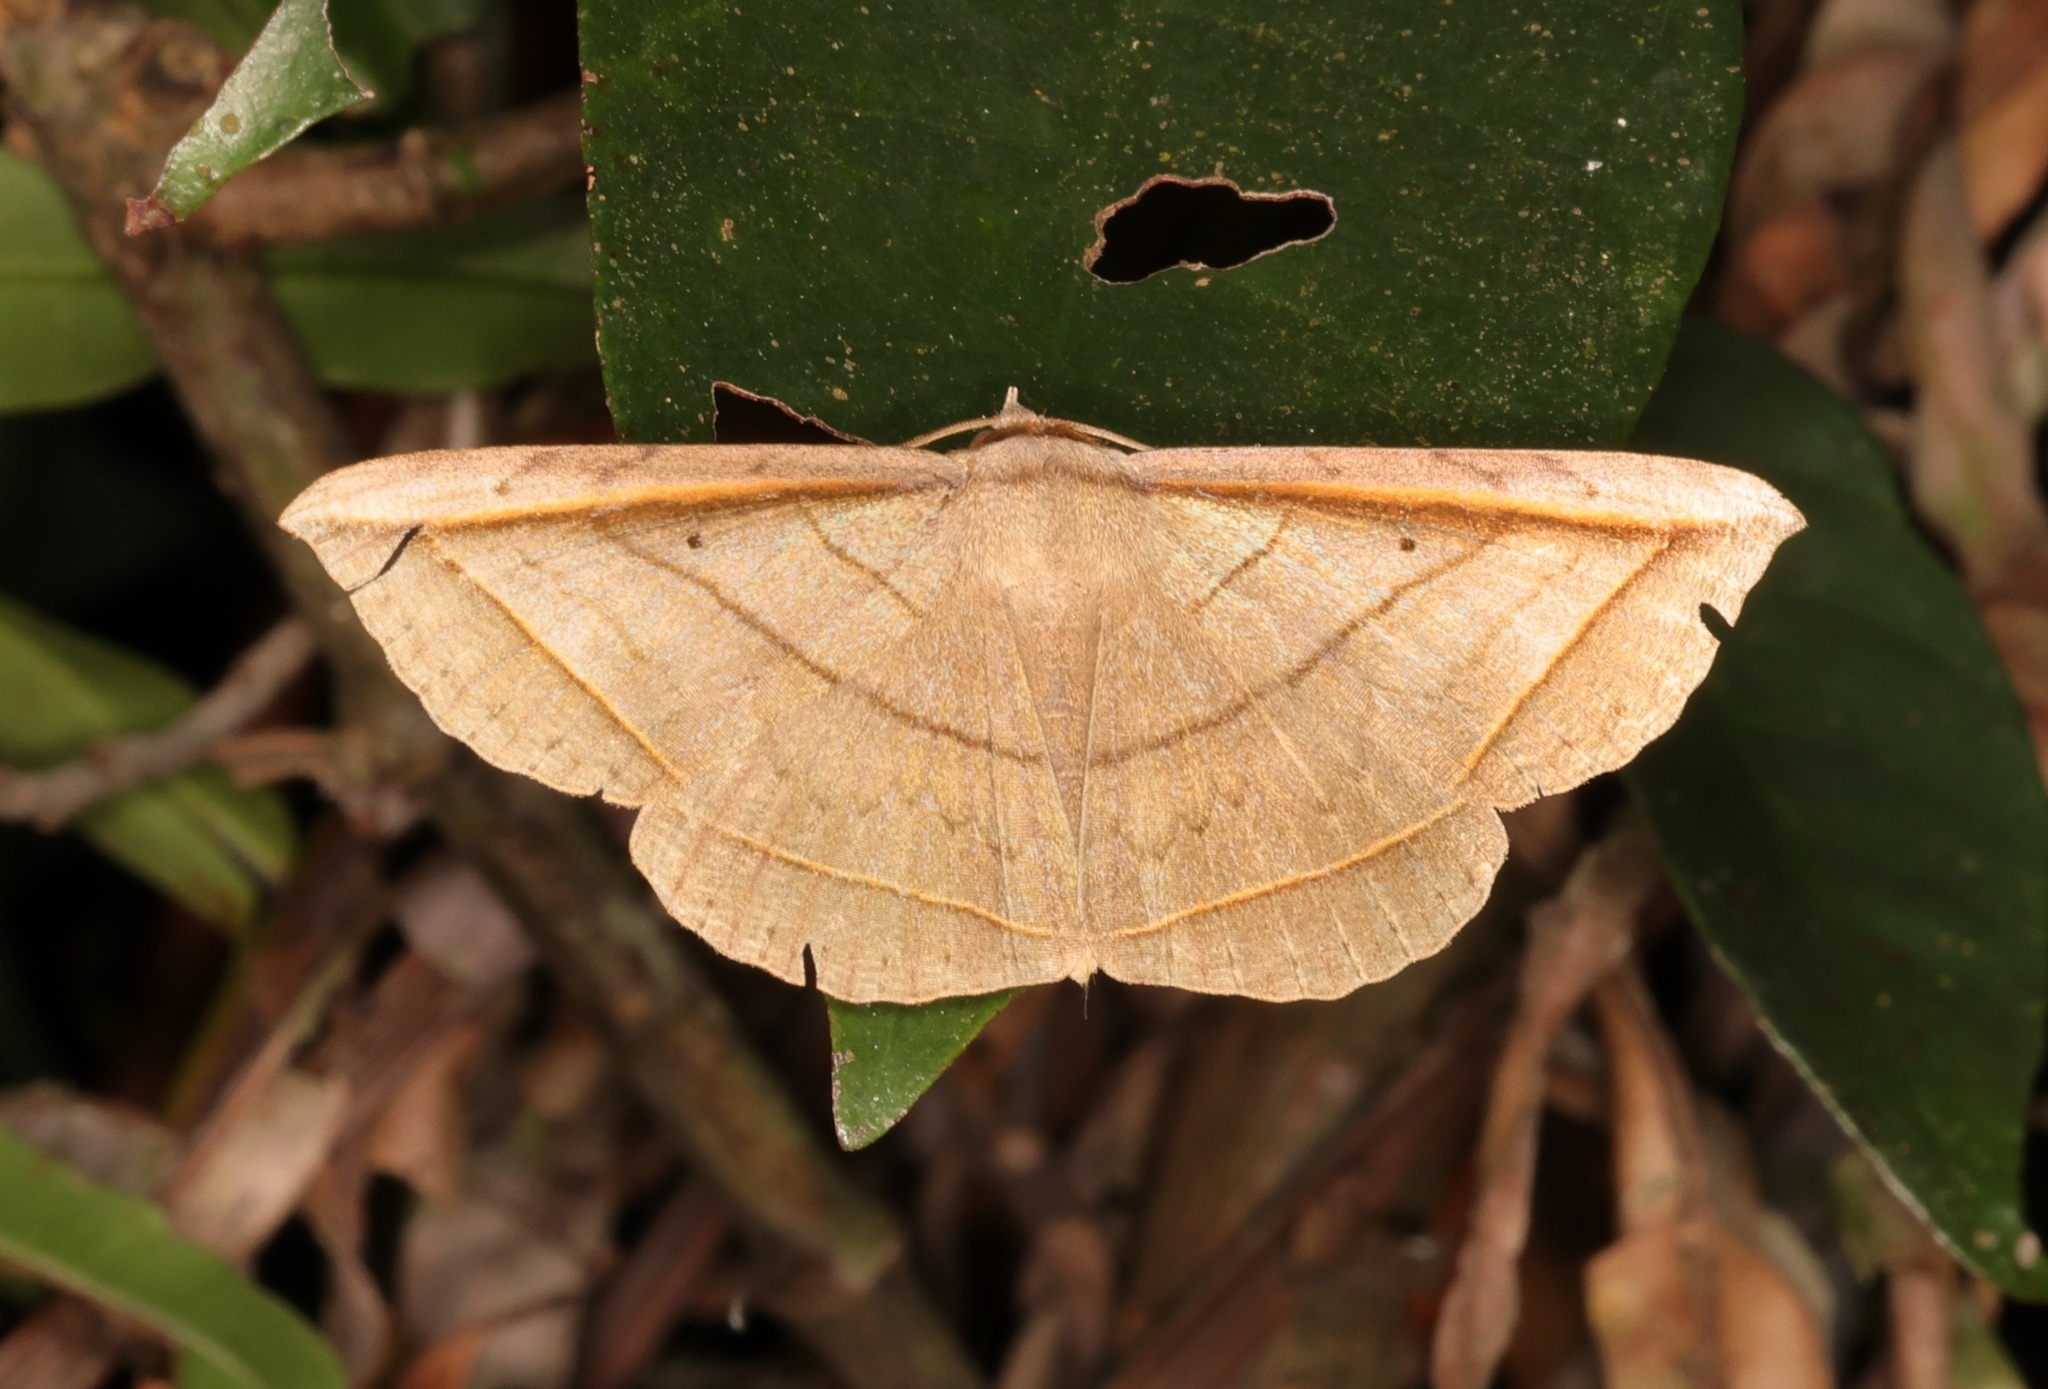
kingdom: Animalia
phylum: Arthropoda
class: Insecta
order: Lepidoptera
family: Erebidae
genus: Entomogramma
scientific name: Entomogramma fautrix
